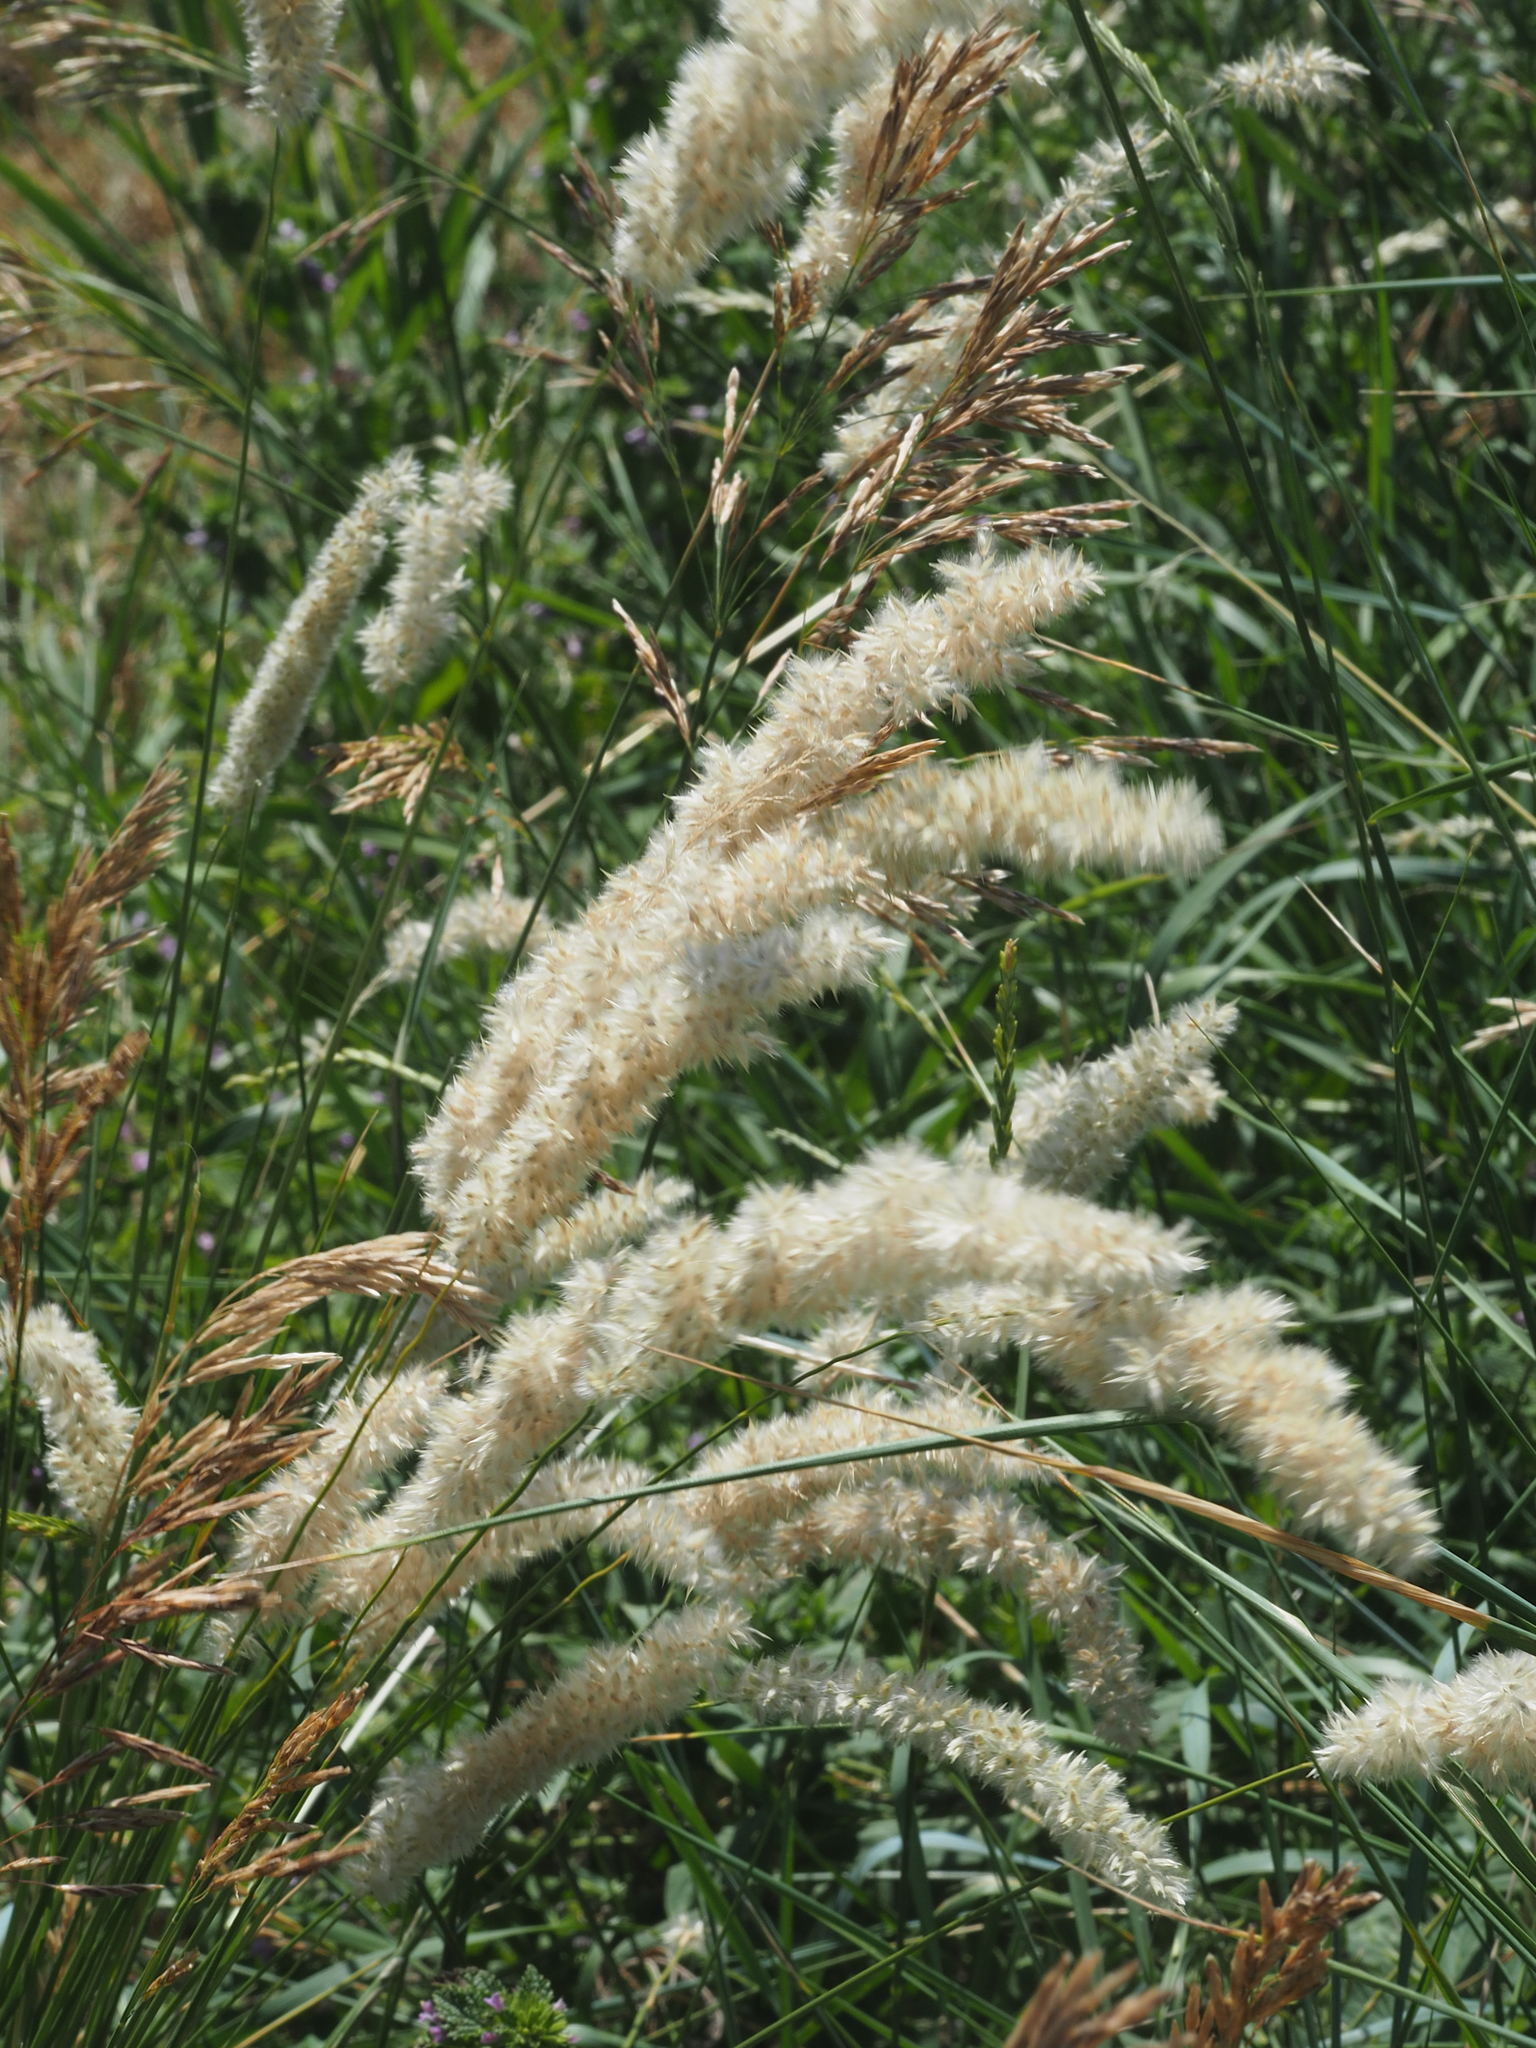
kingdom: Plantae
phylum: Tracheophyta
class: Liliopsida
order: Poales
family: Poaceae
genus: Melica
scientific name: Melica transsilvanica
